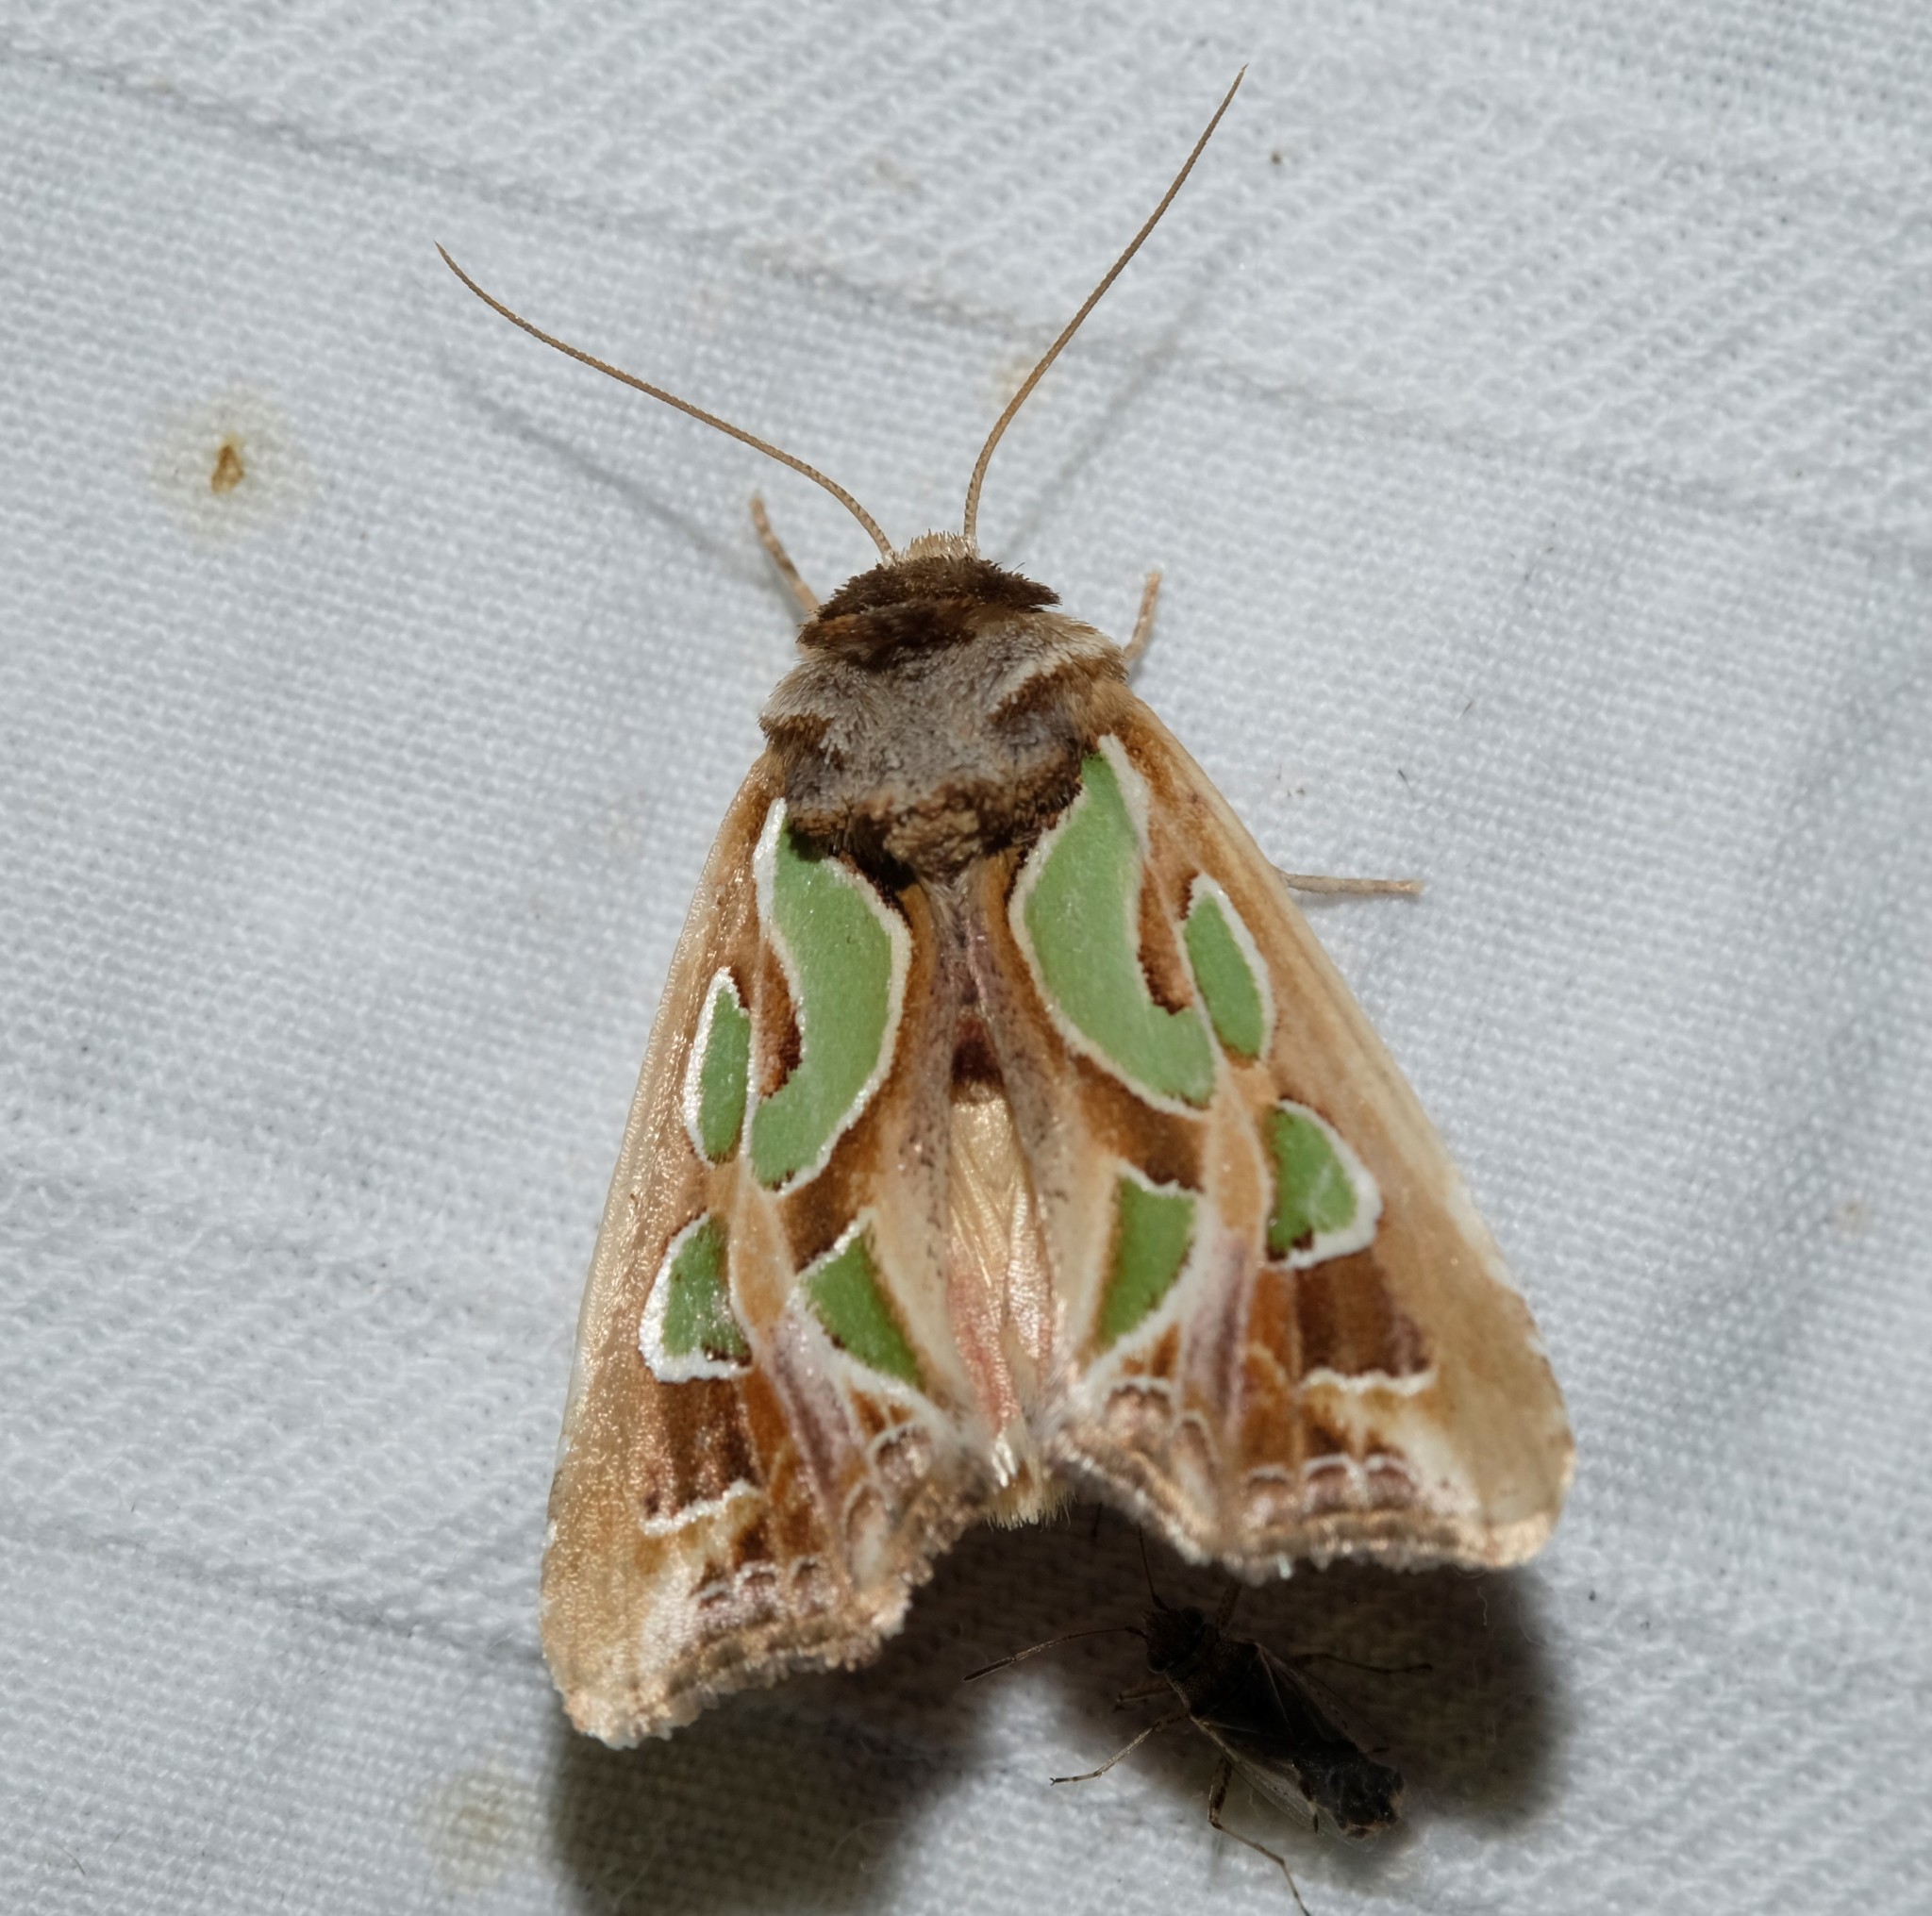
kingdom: Animalia
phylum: Arthropoda
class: Insecta
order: Lepidoptera
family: Noctuidae
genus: Cosmodes
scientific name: Cosmodes elegans
